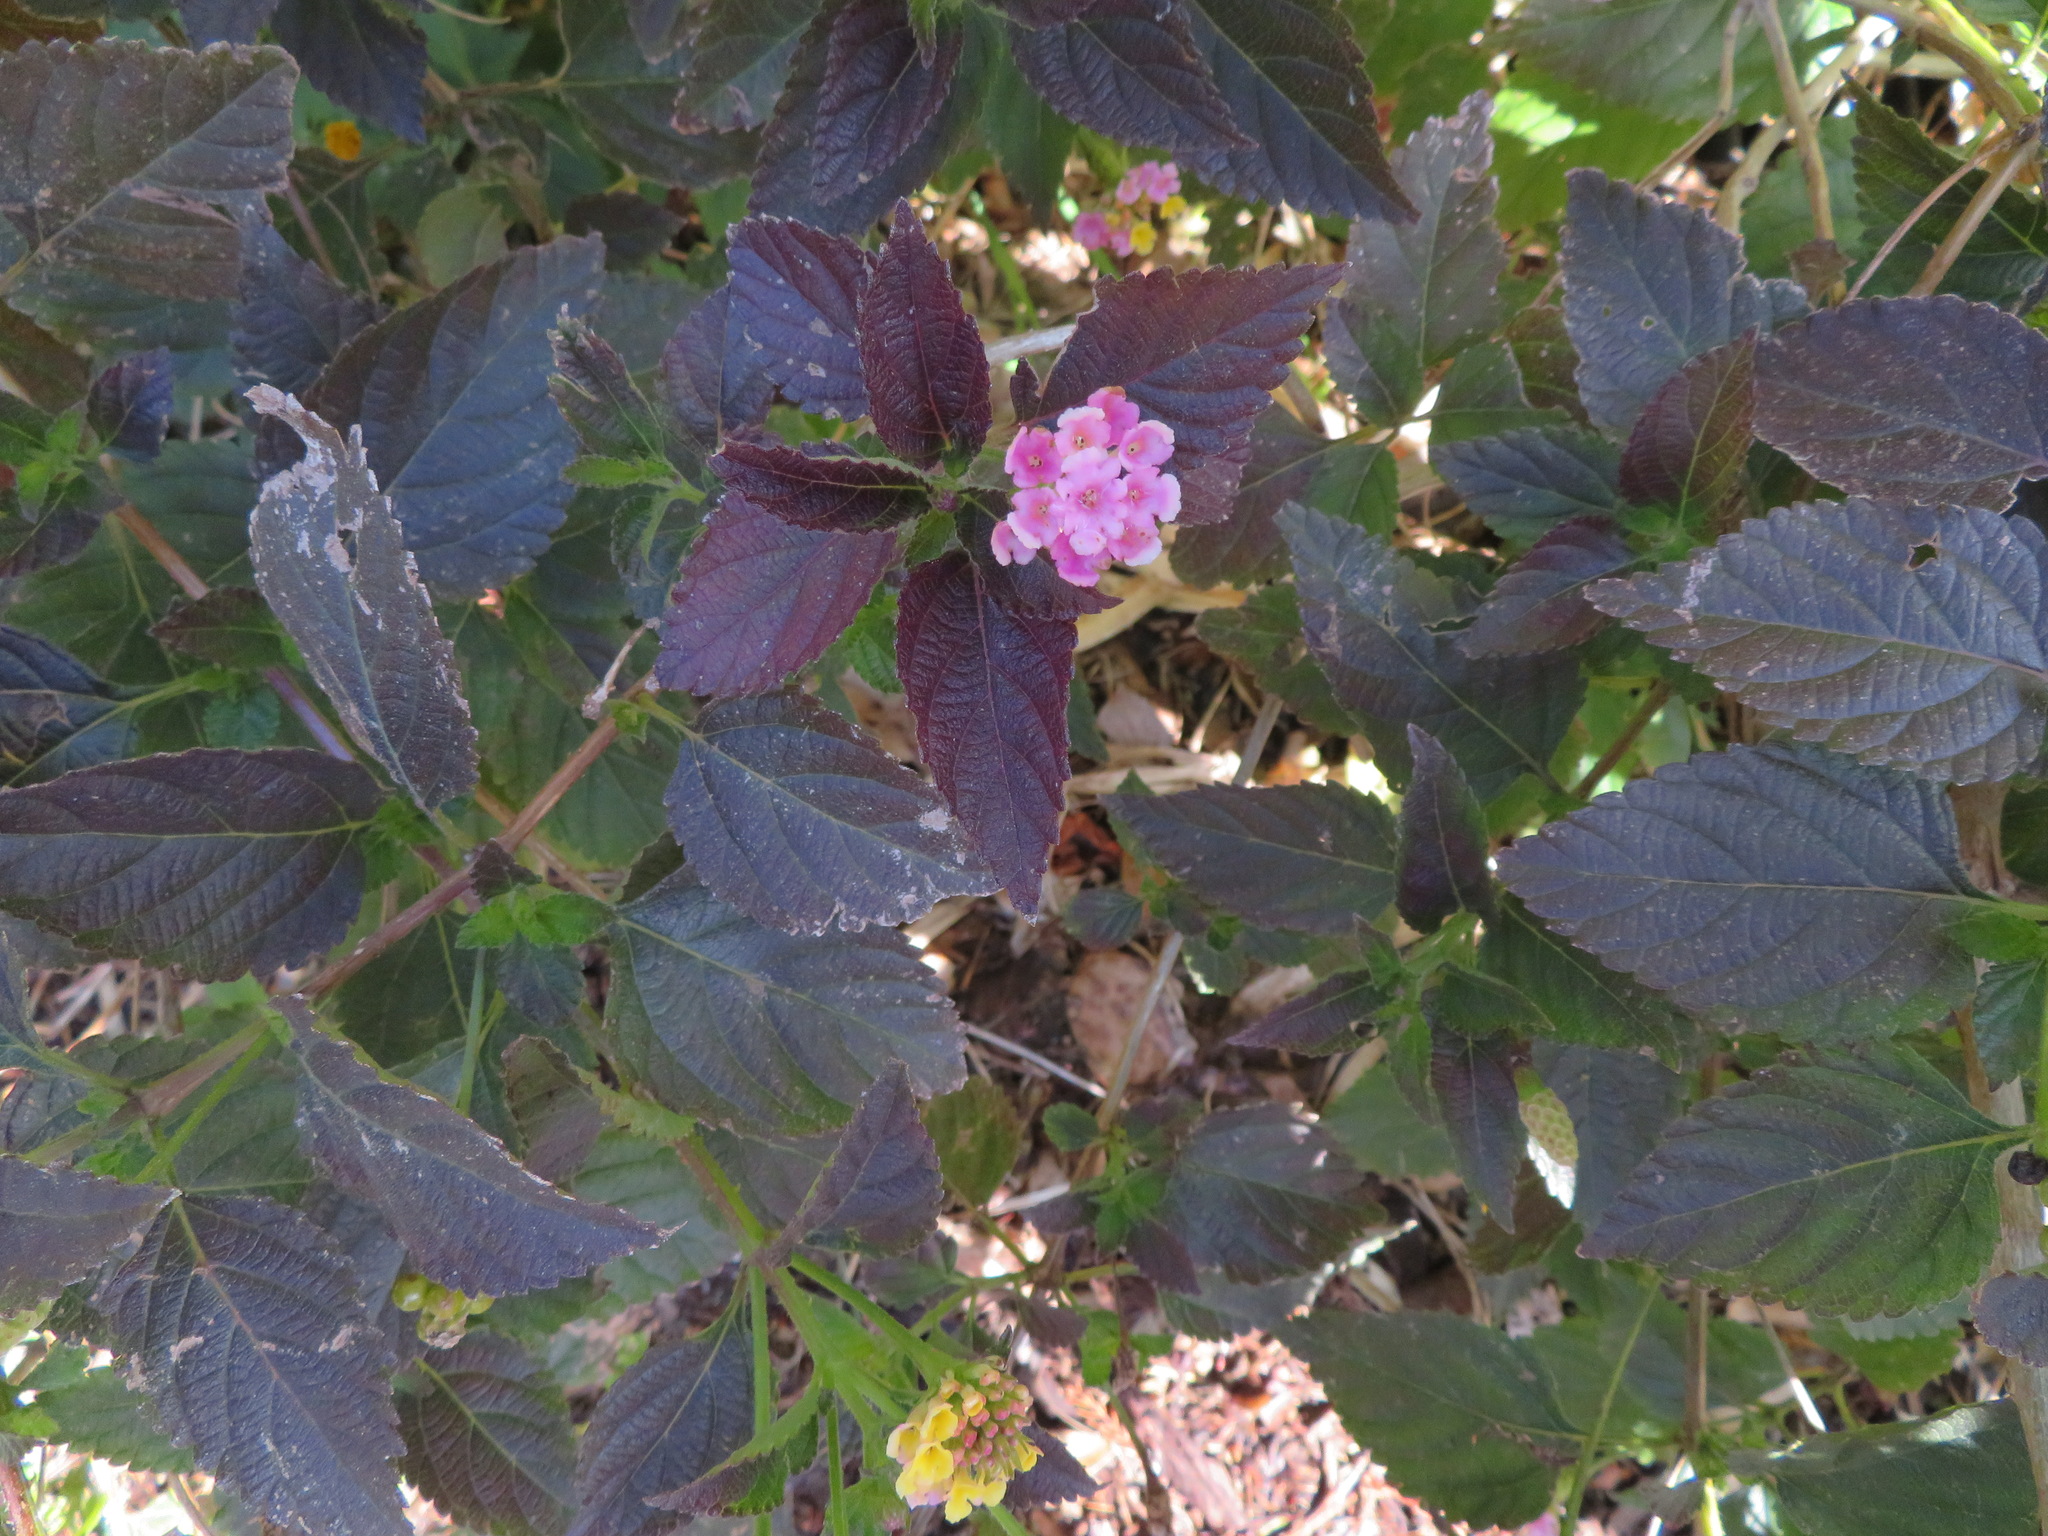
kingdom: Plantae
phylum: Tracheophyta
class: Magnoliopsida
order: Lamiales
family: Verbenaceae
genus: Lantana
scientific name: Lantana camara
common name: Lantana
